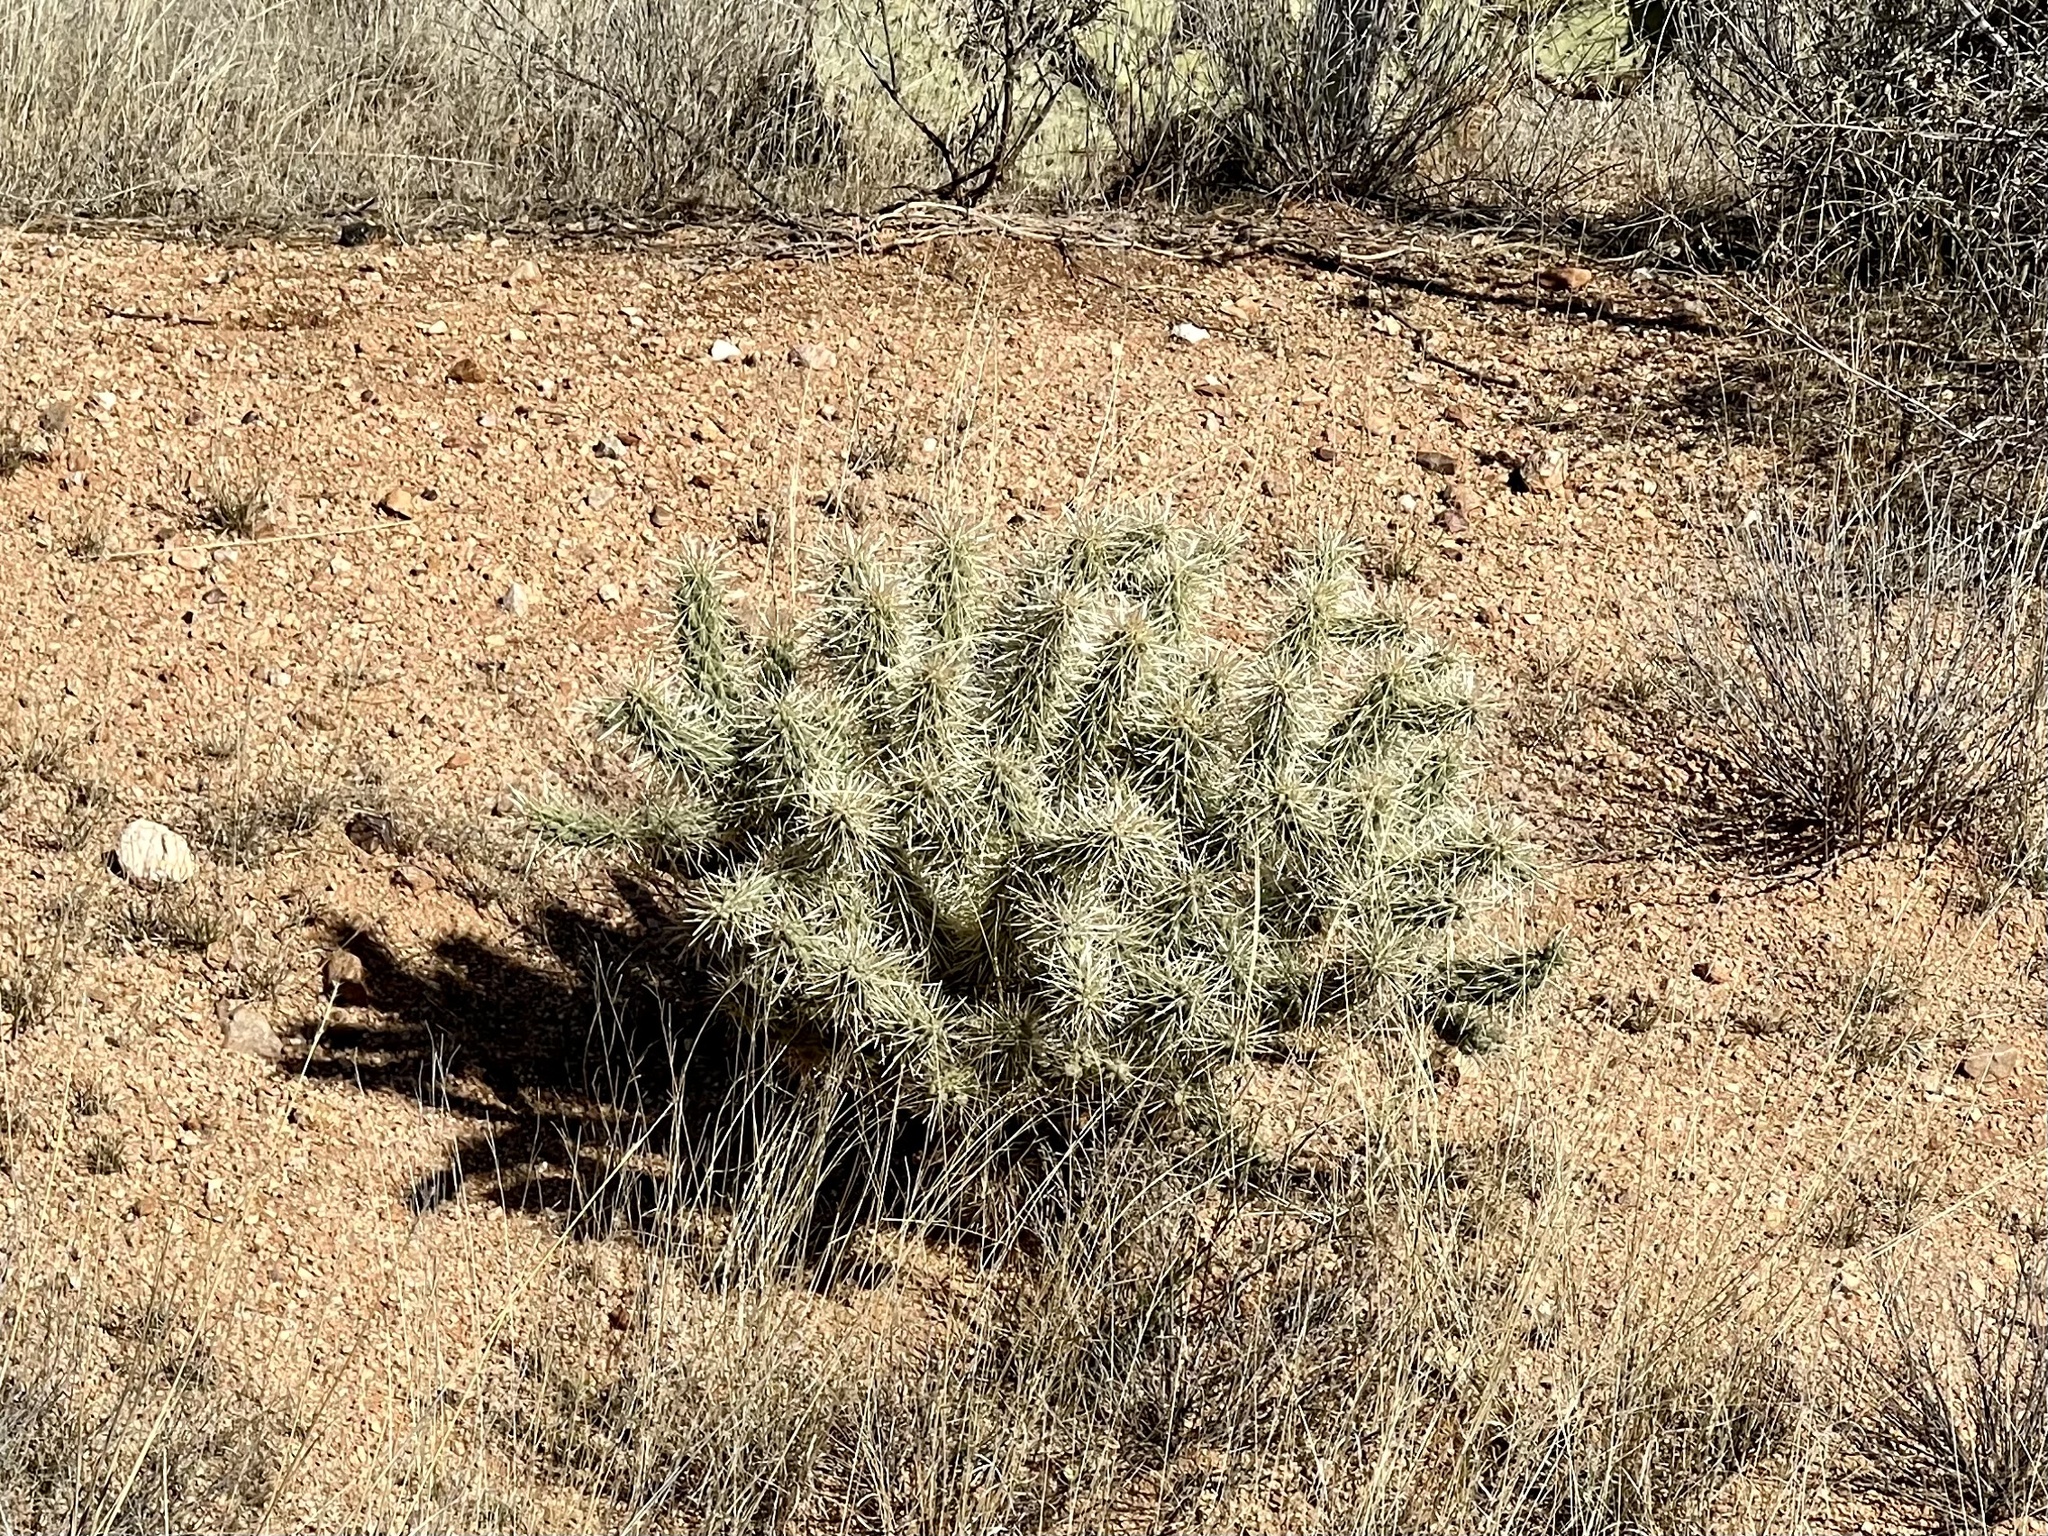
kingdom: Plantae
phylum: Tracheophyta
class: Magnoliopsida
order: Caryophyllales
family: Cactaceae
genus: Cylindropuntia
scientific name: Cylindropuntia fulgida
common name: Jumping cholla
